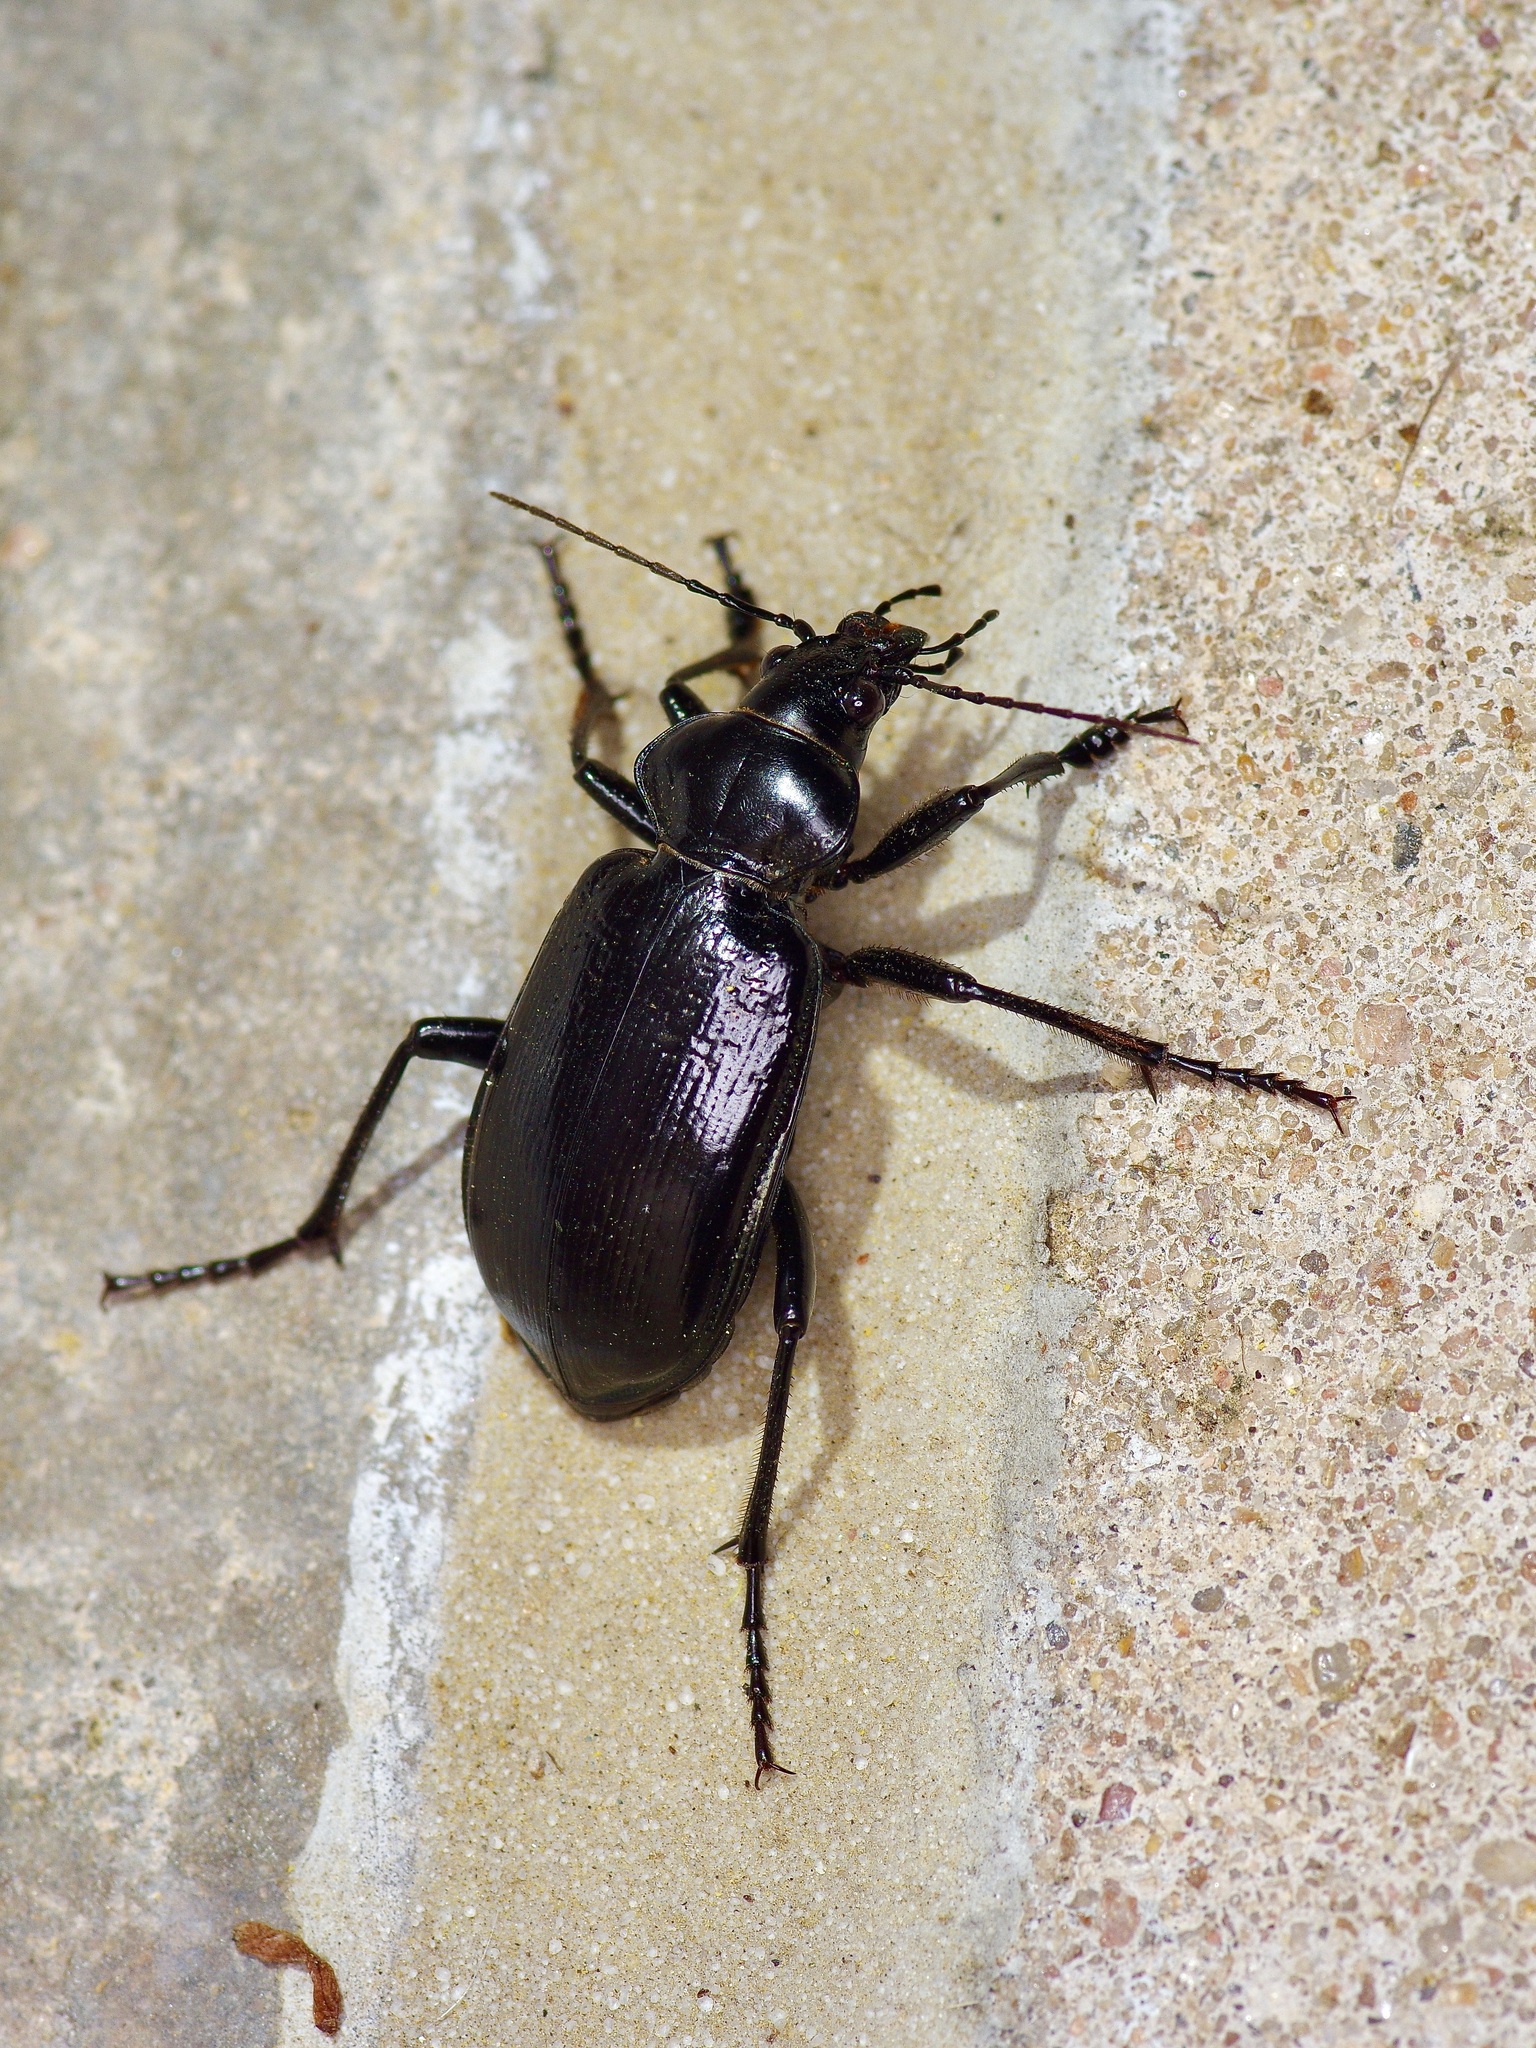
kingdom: Animalia
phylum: Arthropoda
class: Insecta
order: Coleoptera
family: Carabidae
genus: Calosoma
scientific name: Calosoma marginale
